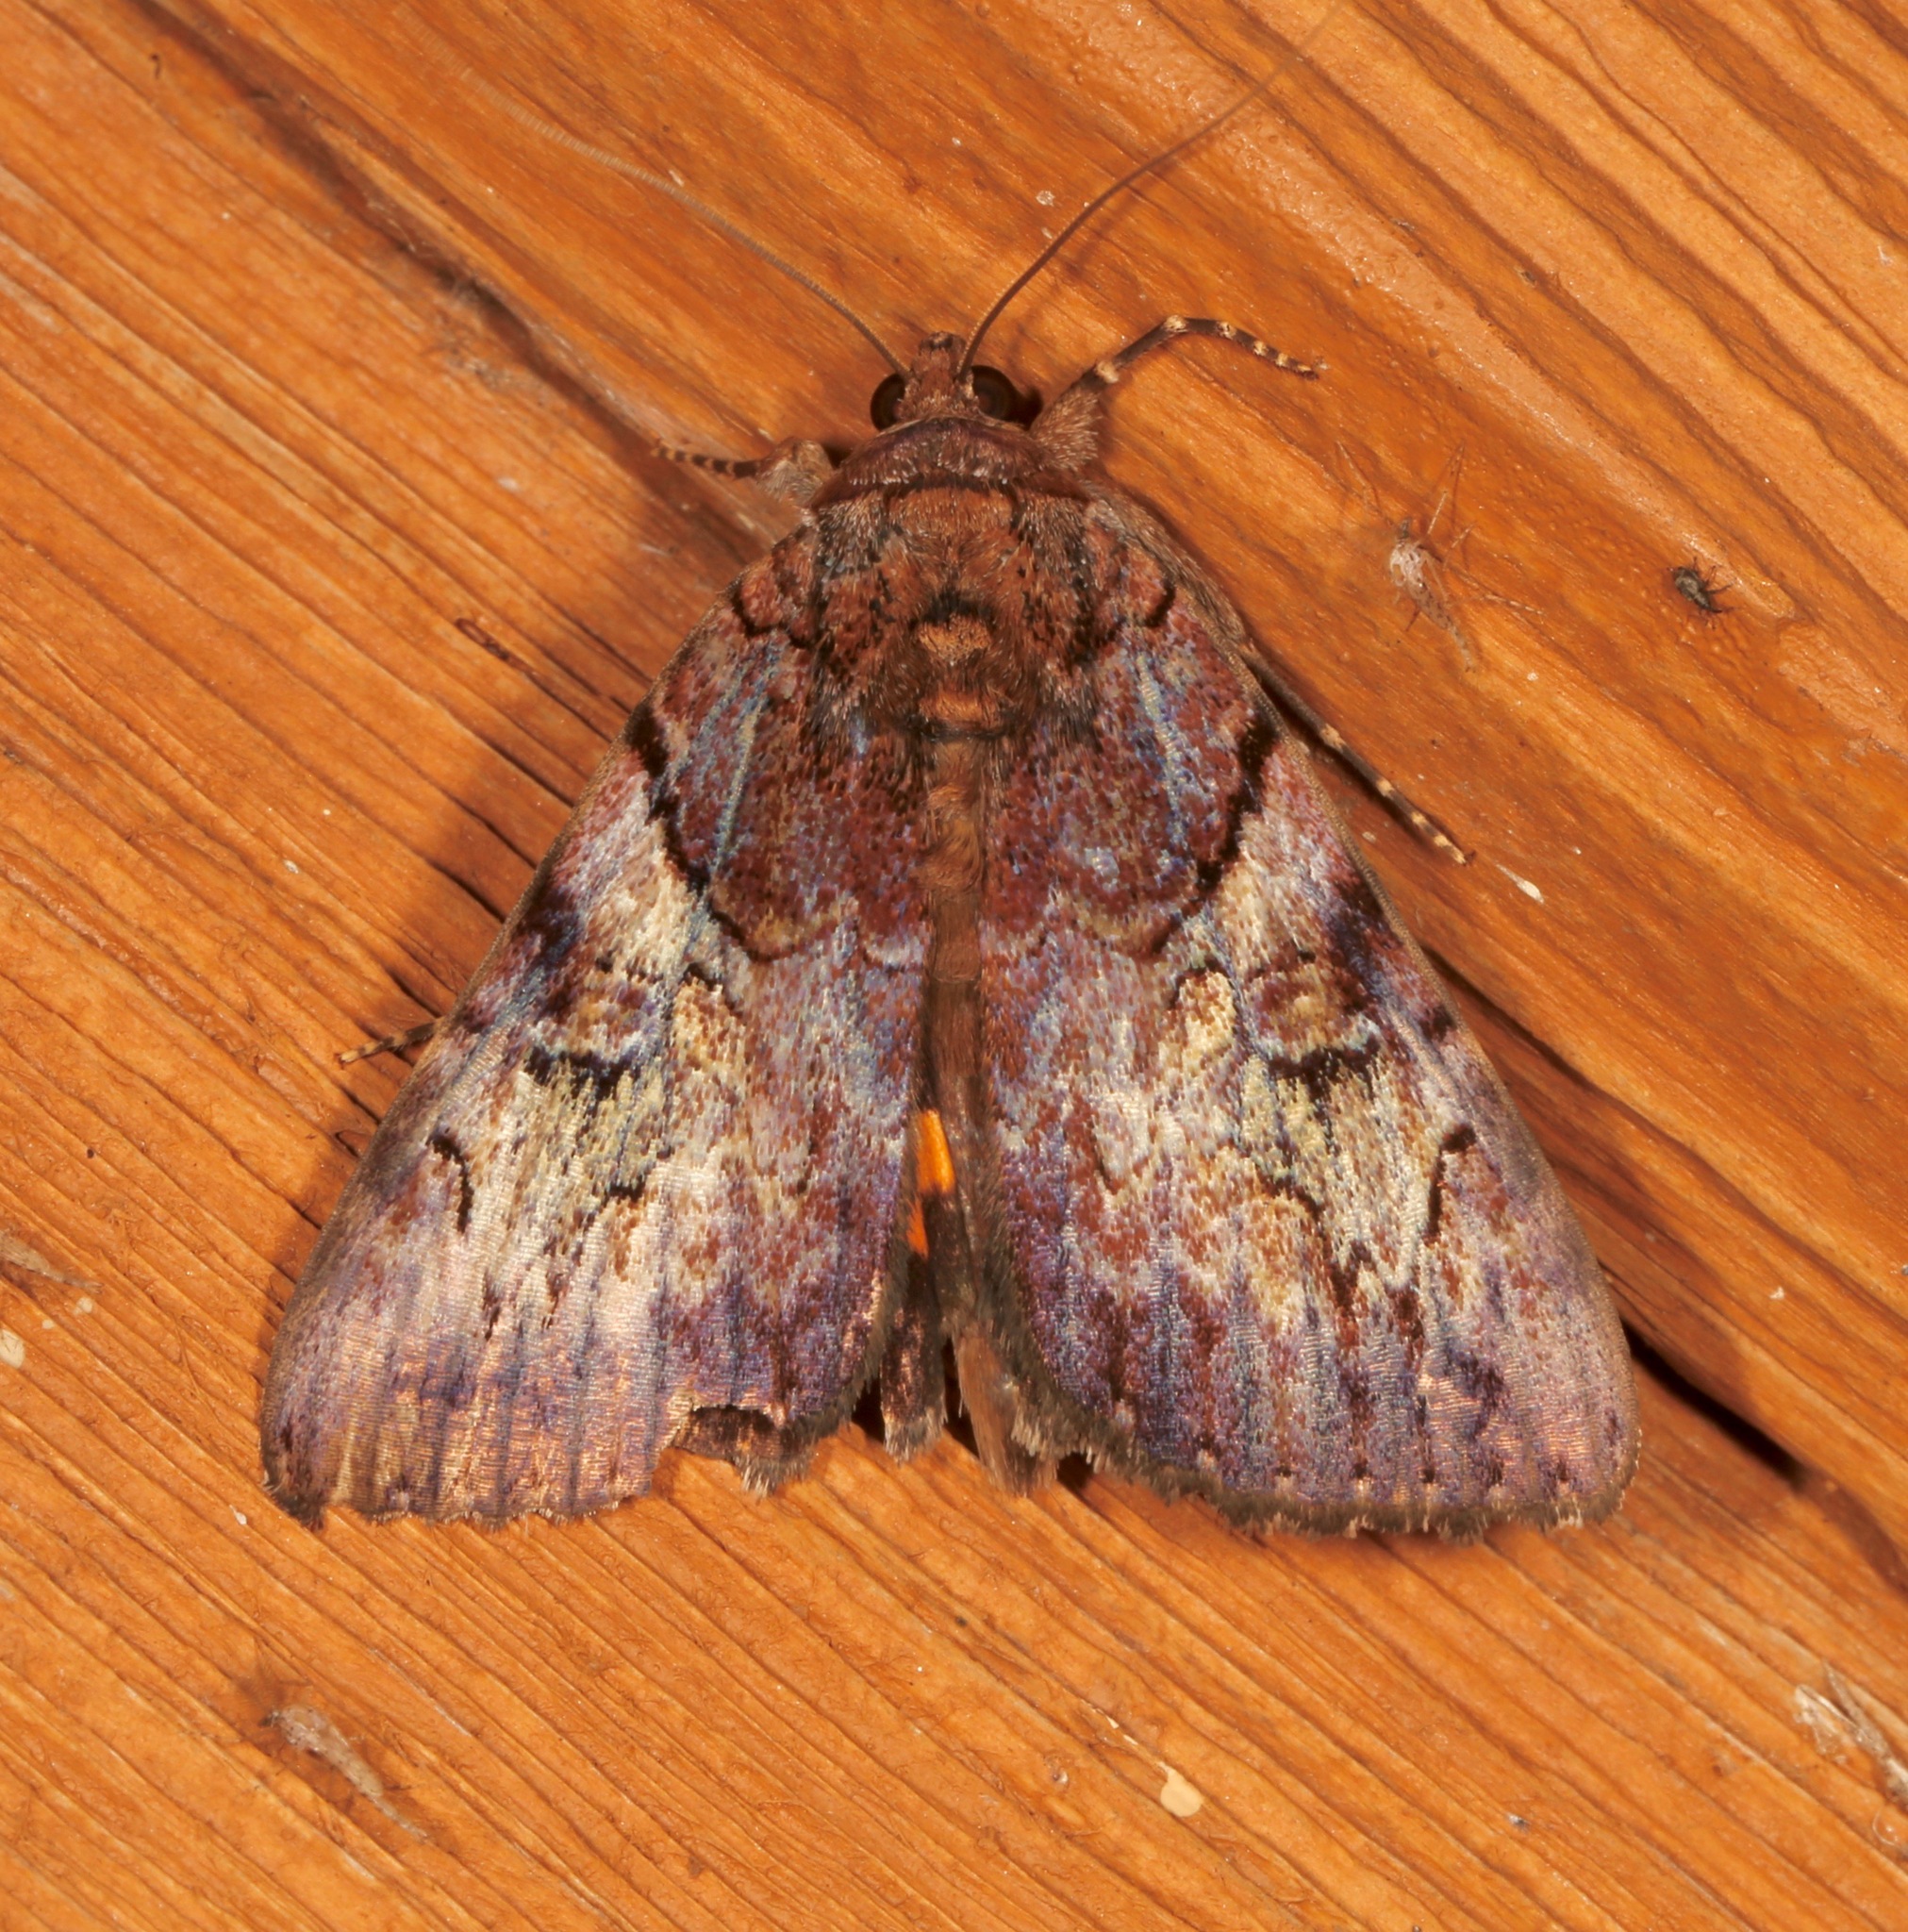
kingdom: Animalia
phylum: Arthropoda
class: Insecta
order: Lepidoptera
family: Erebidae
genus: Catocala
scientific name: Catocala muliercula
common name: The little wife underwing
